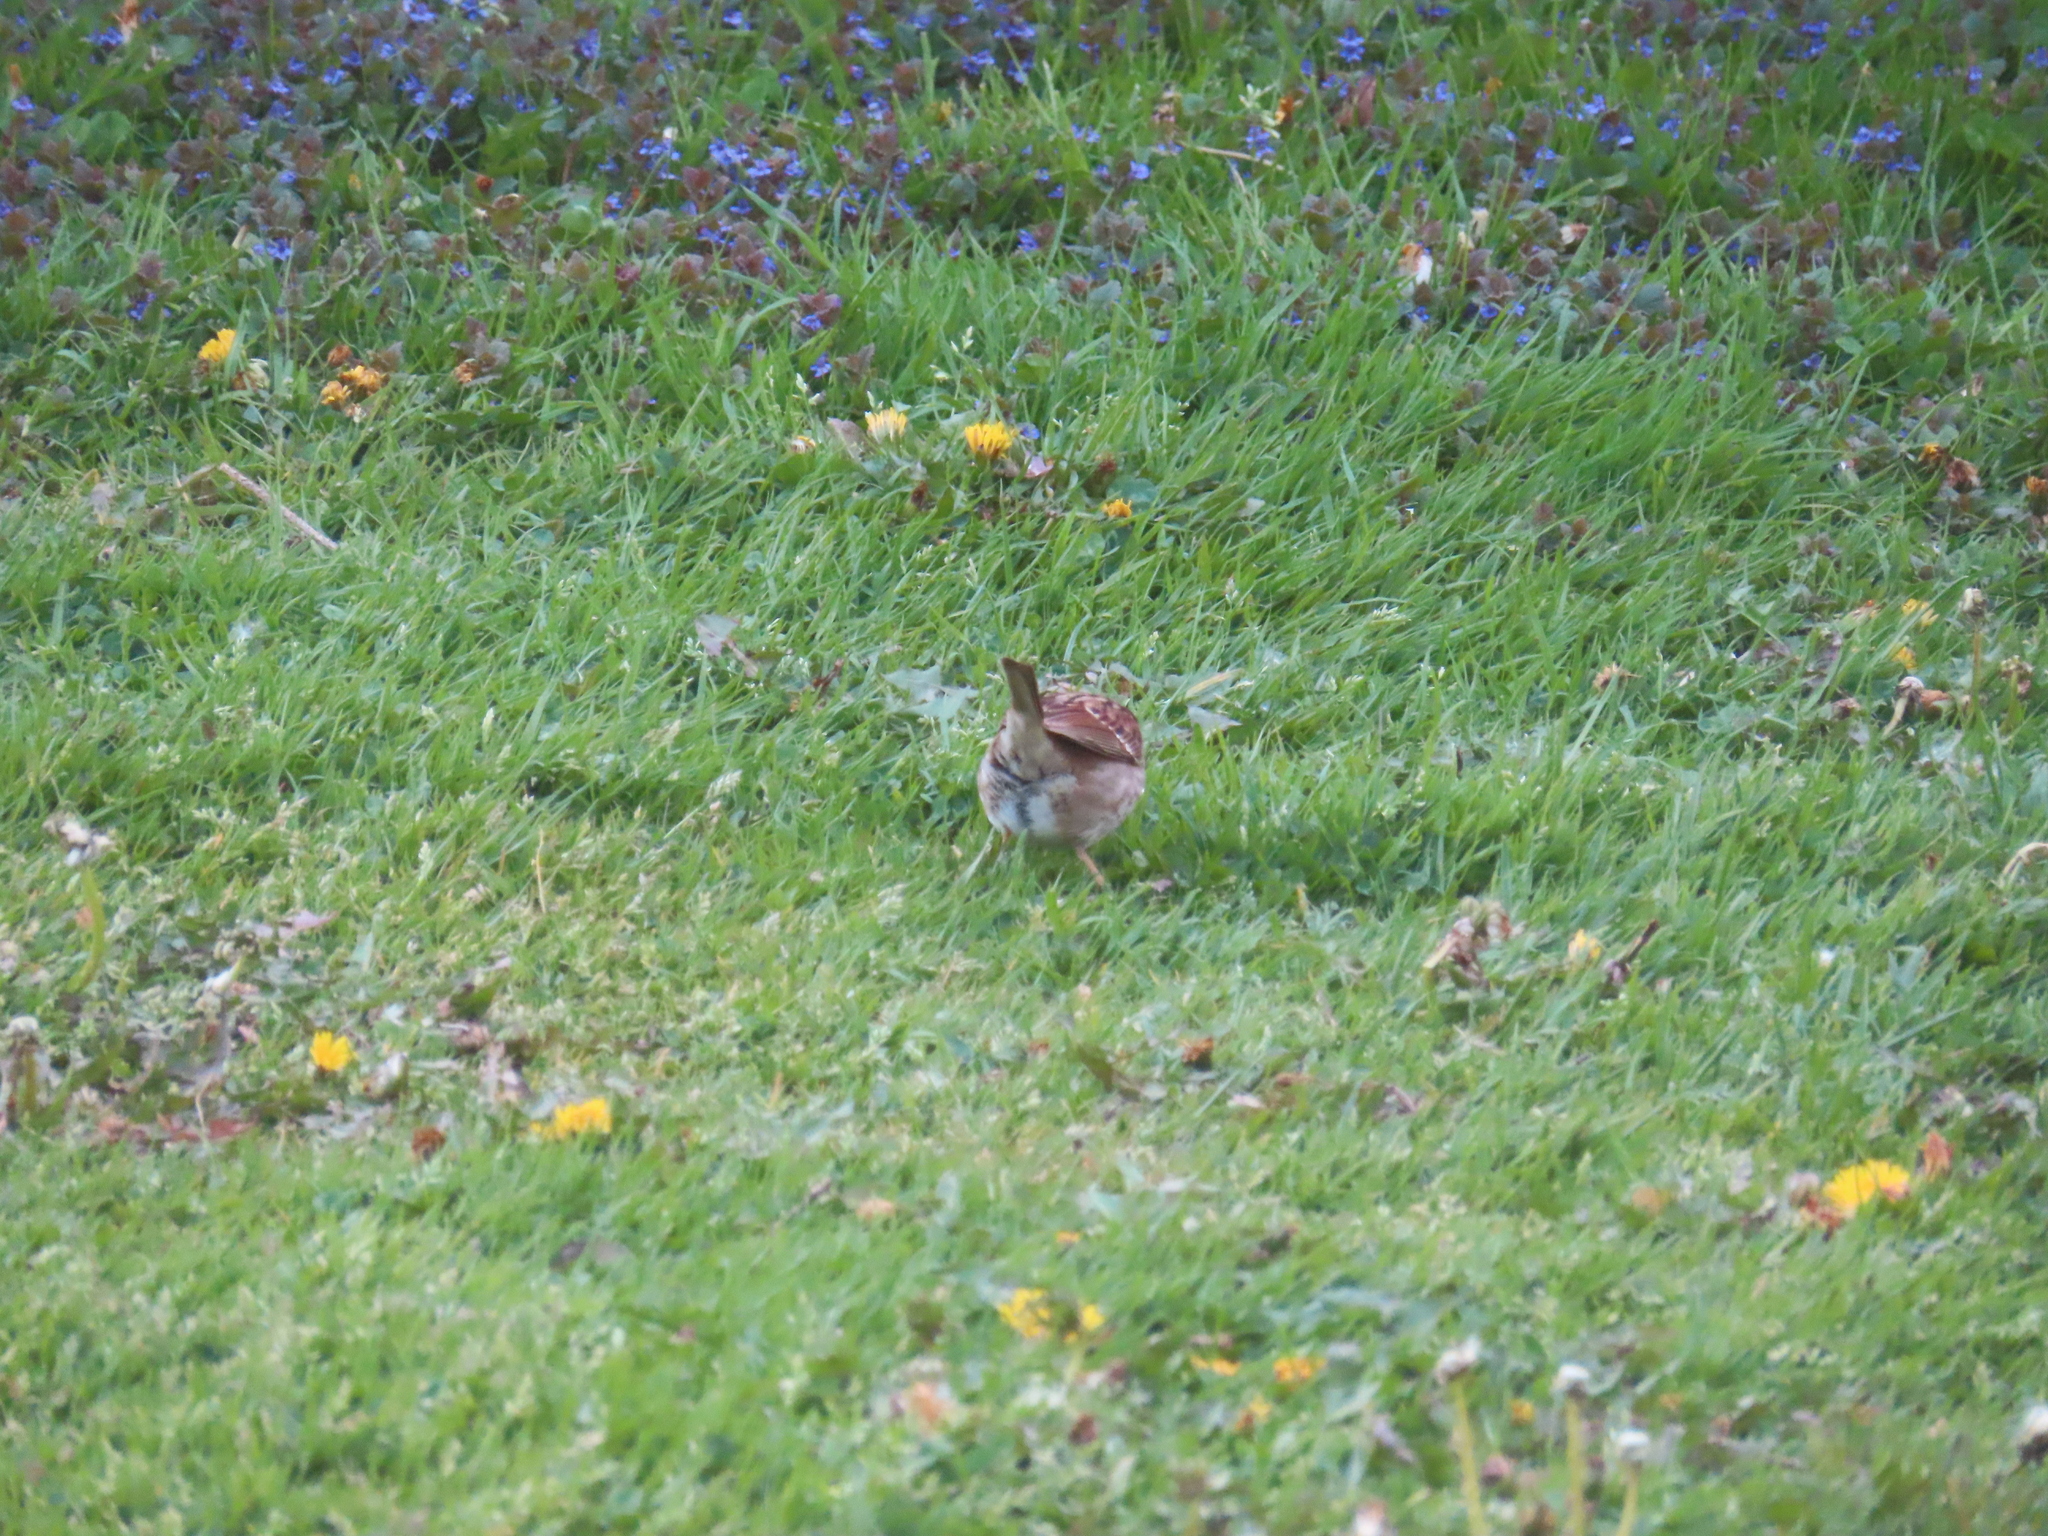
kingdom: Animalia
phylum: Chordata
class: Aves
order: Passeriformes
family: Passerellidae
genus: Zonotrichia
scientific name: Zonotrichia albicollis
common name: White-throated sparrow
